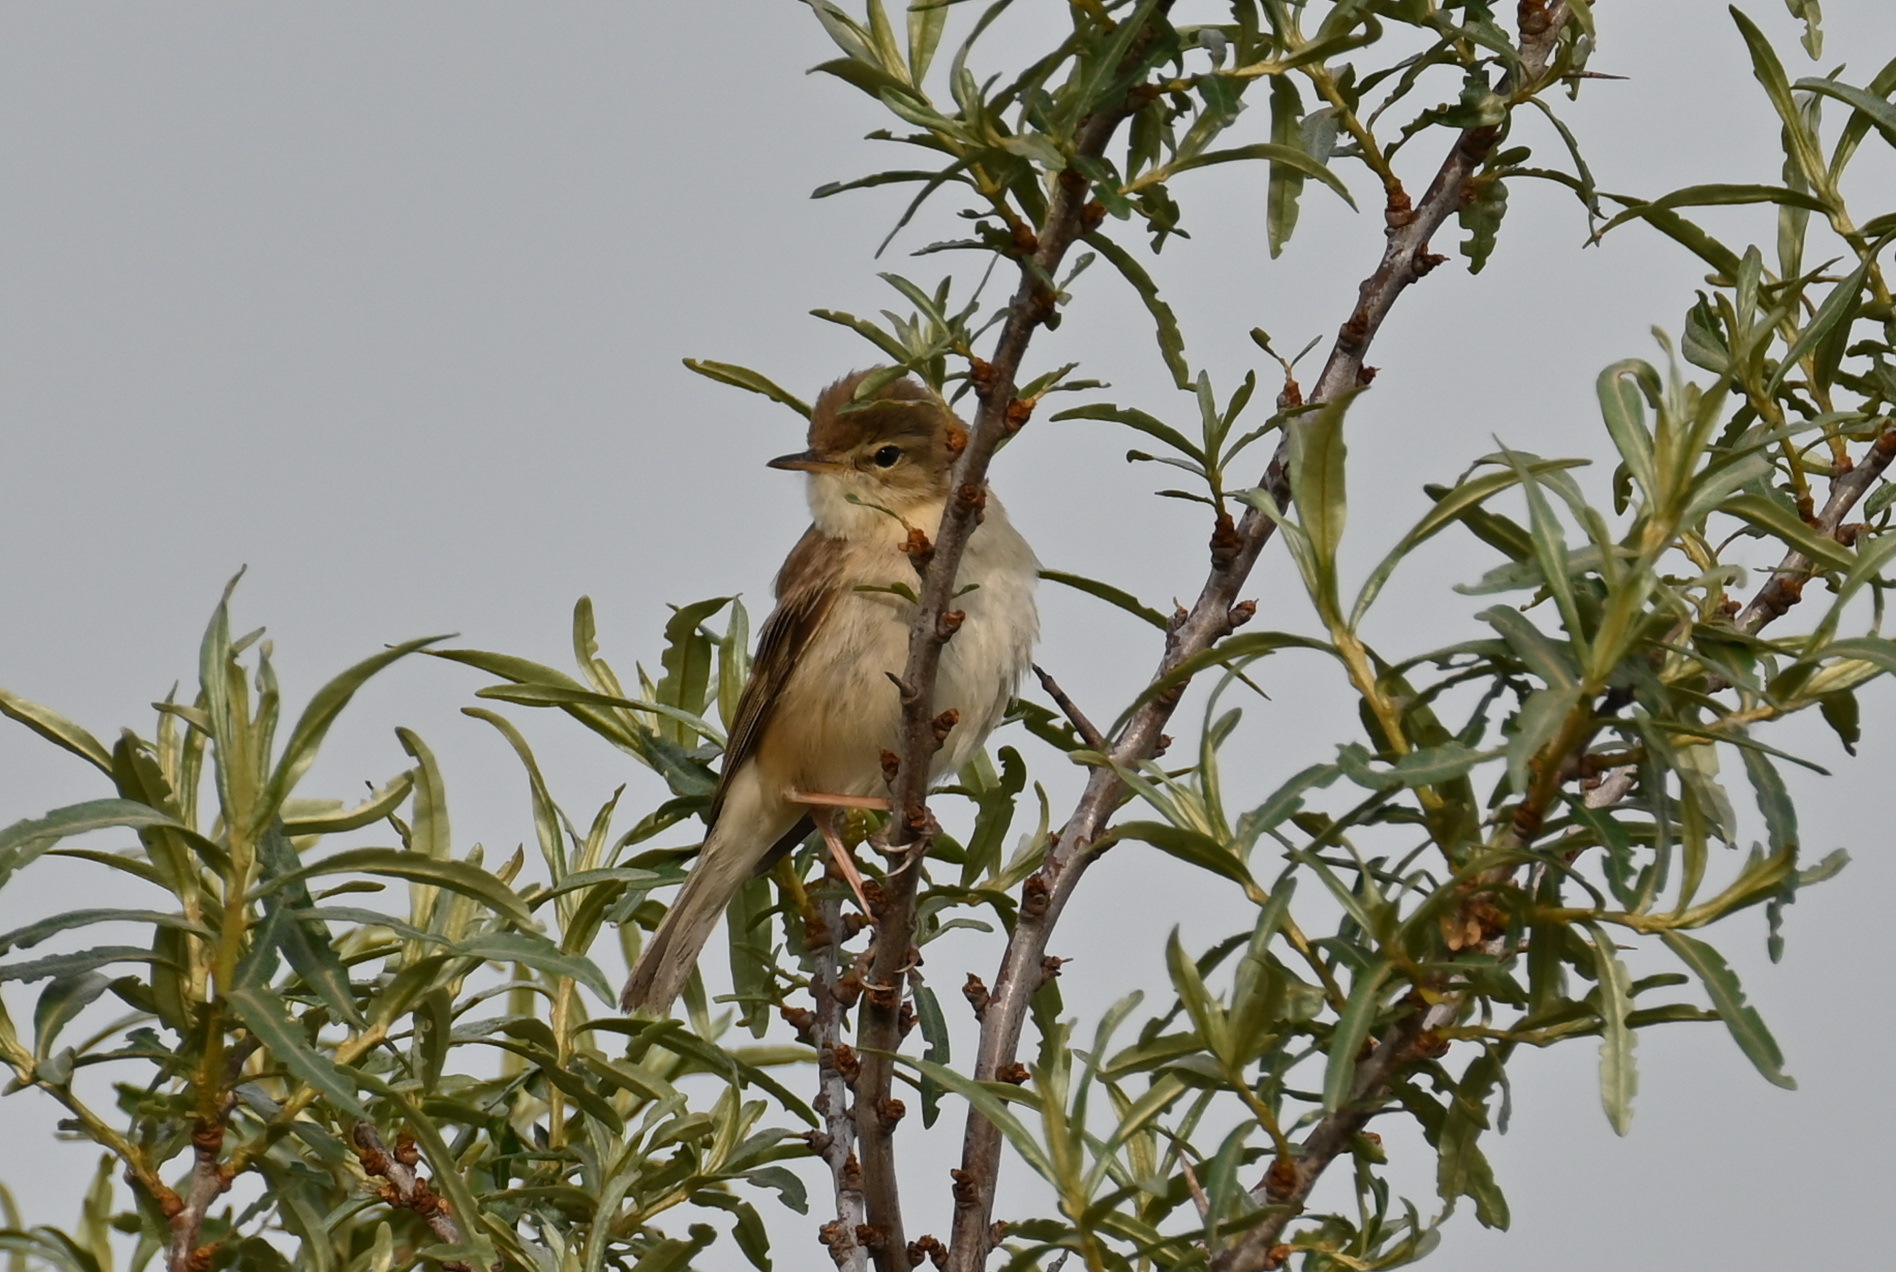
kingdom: Animalia
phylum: Chordata
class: Aves
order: Passeriformes
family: Acrocephalidae
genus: Iduna
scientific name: Iduna caligata
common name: Booted warbler
